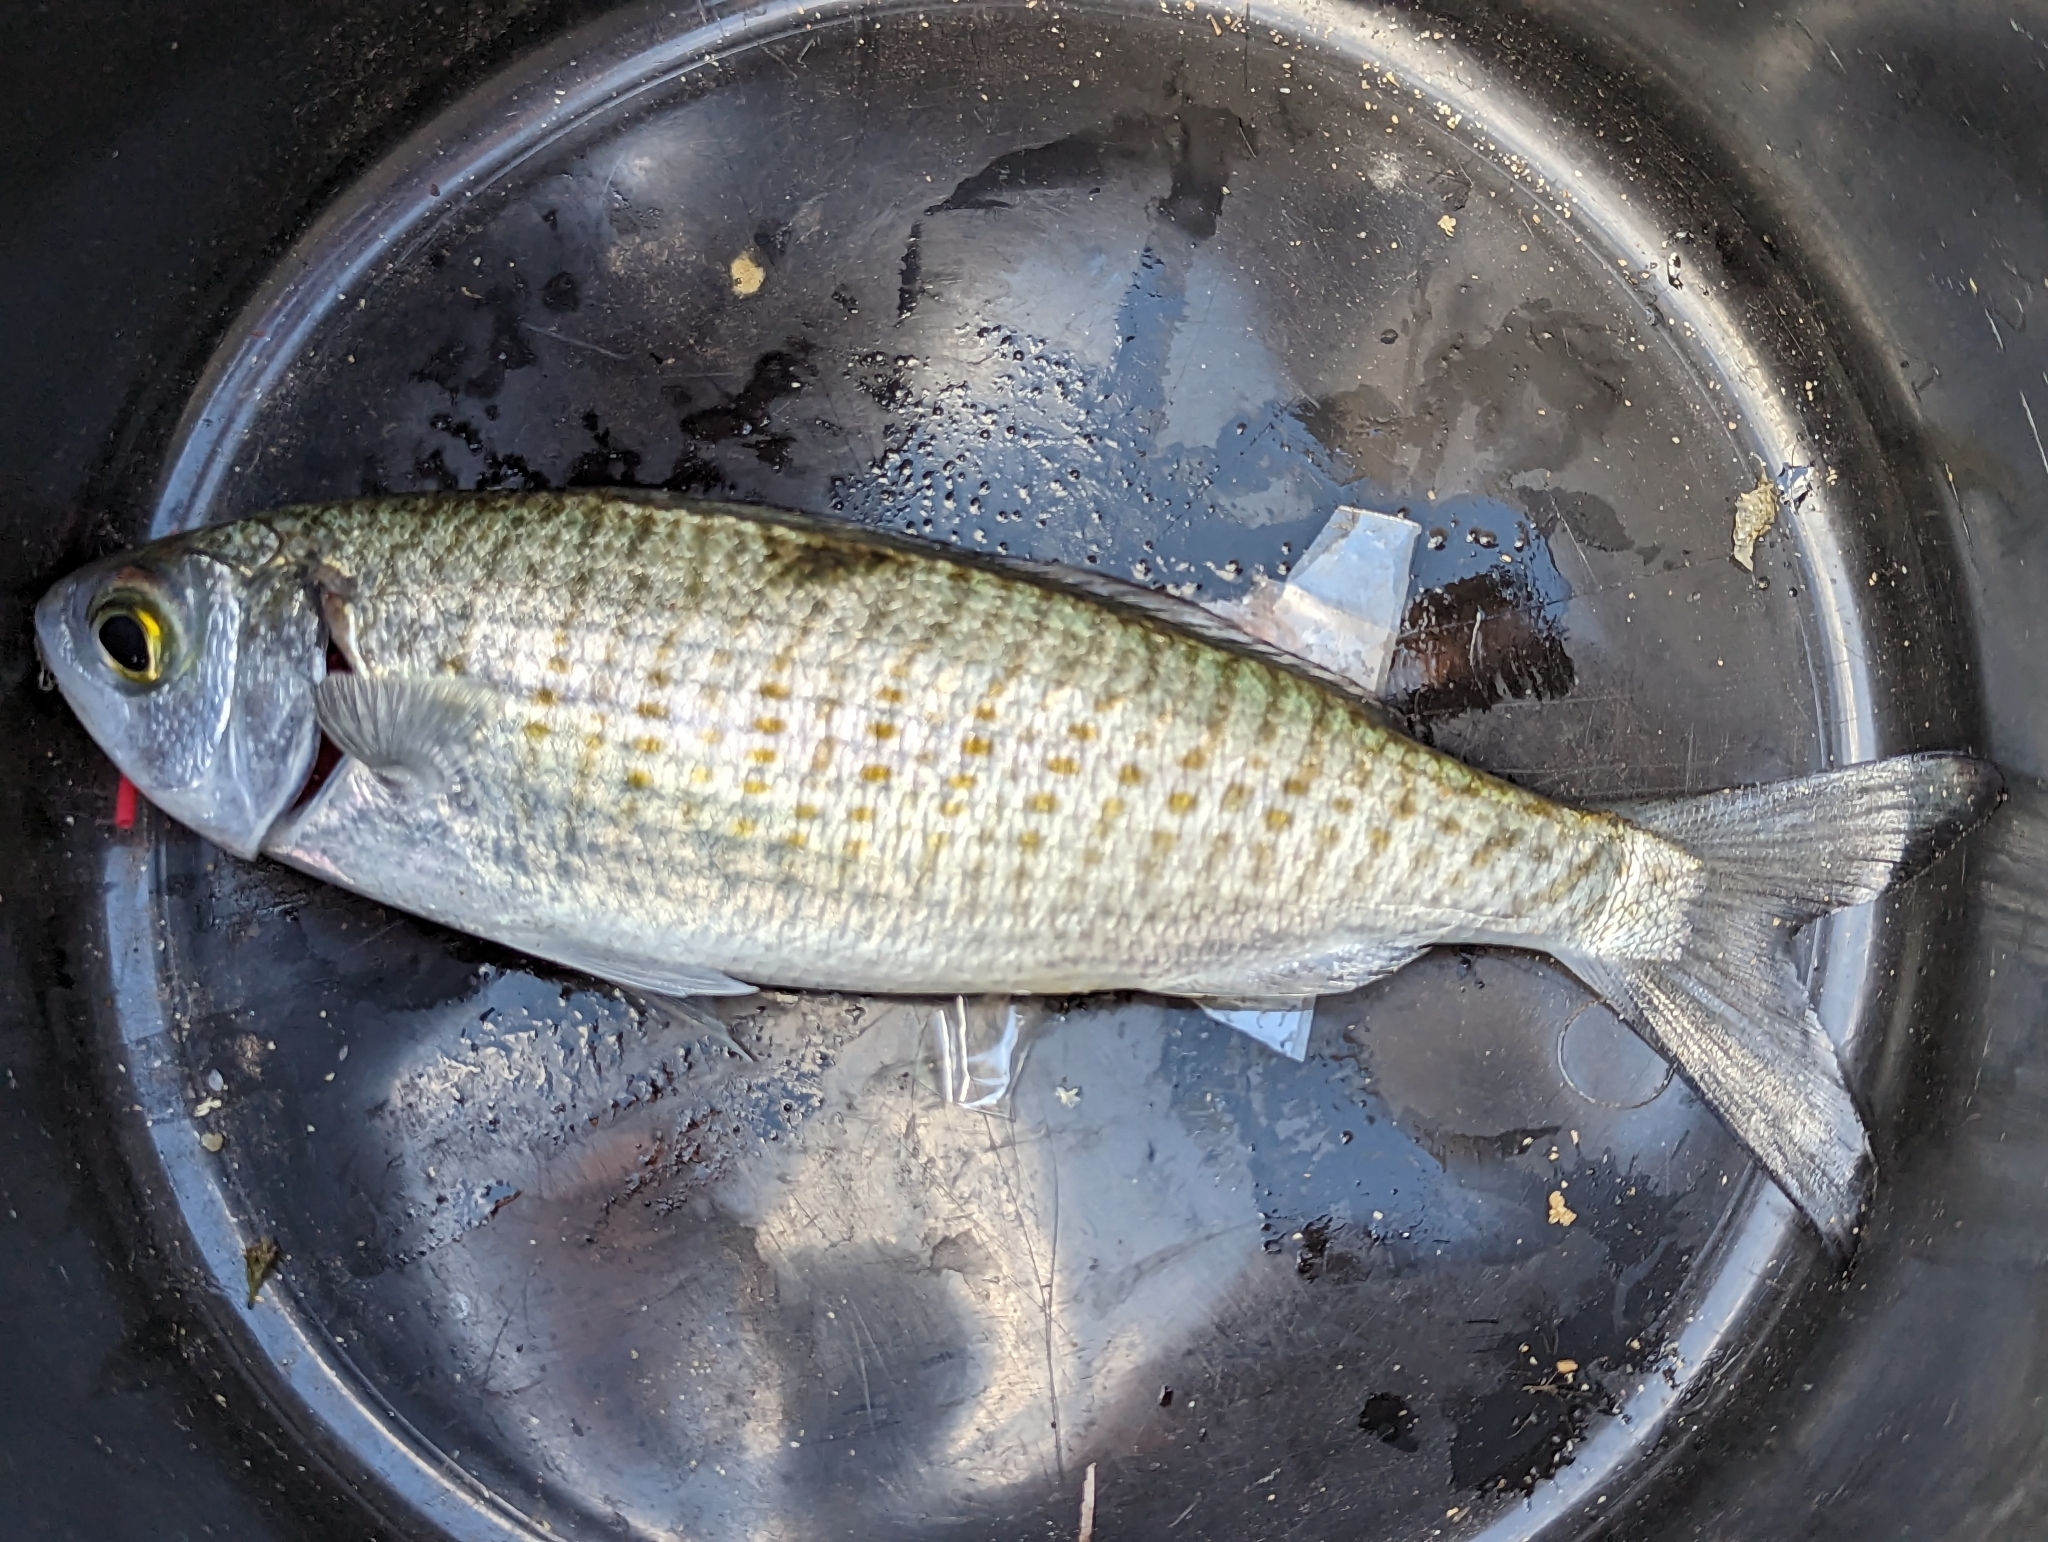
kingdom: Animalia
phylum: Chordata
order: Perciformes
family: Arripidae
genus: Arripis
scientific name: Arripis georgianus
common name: Australian herring
